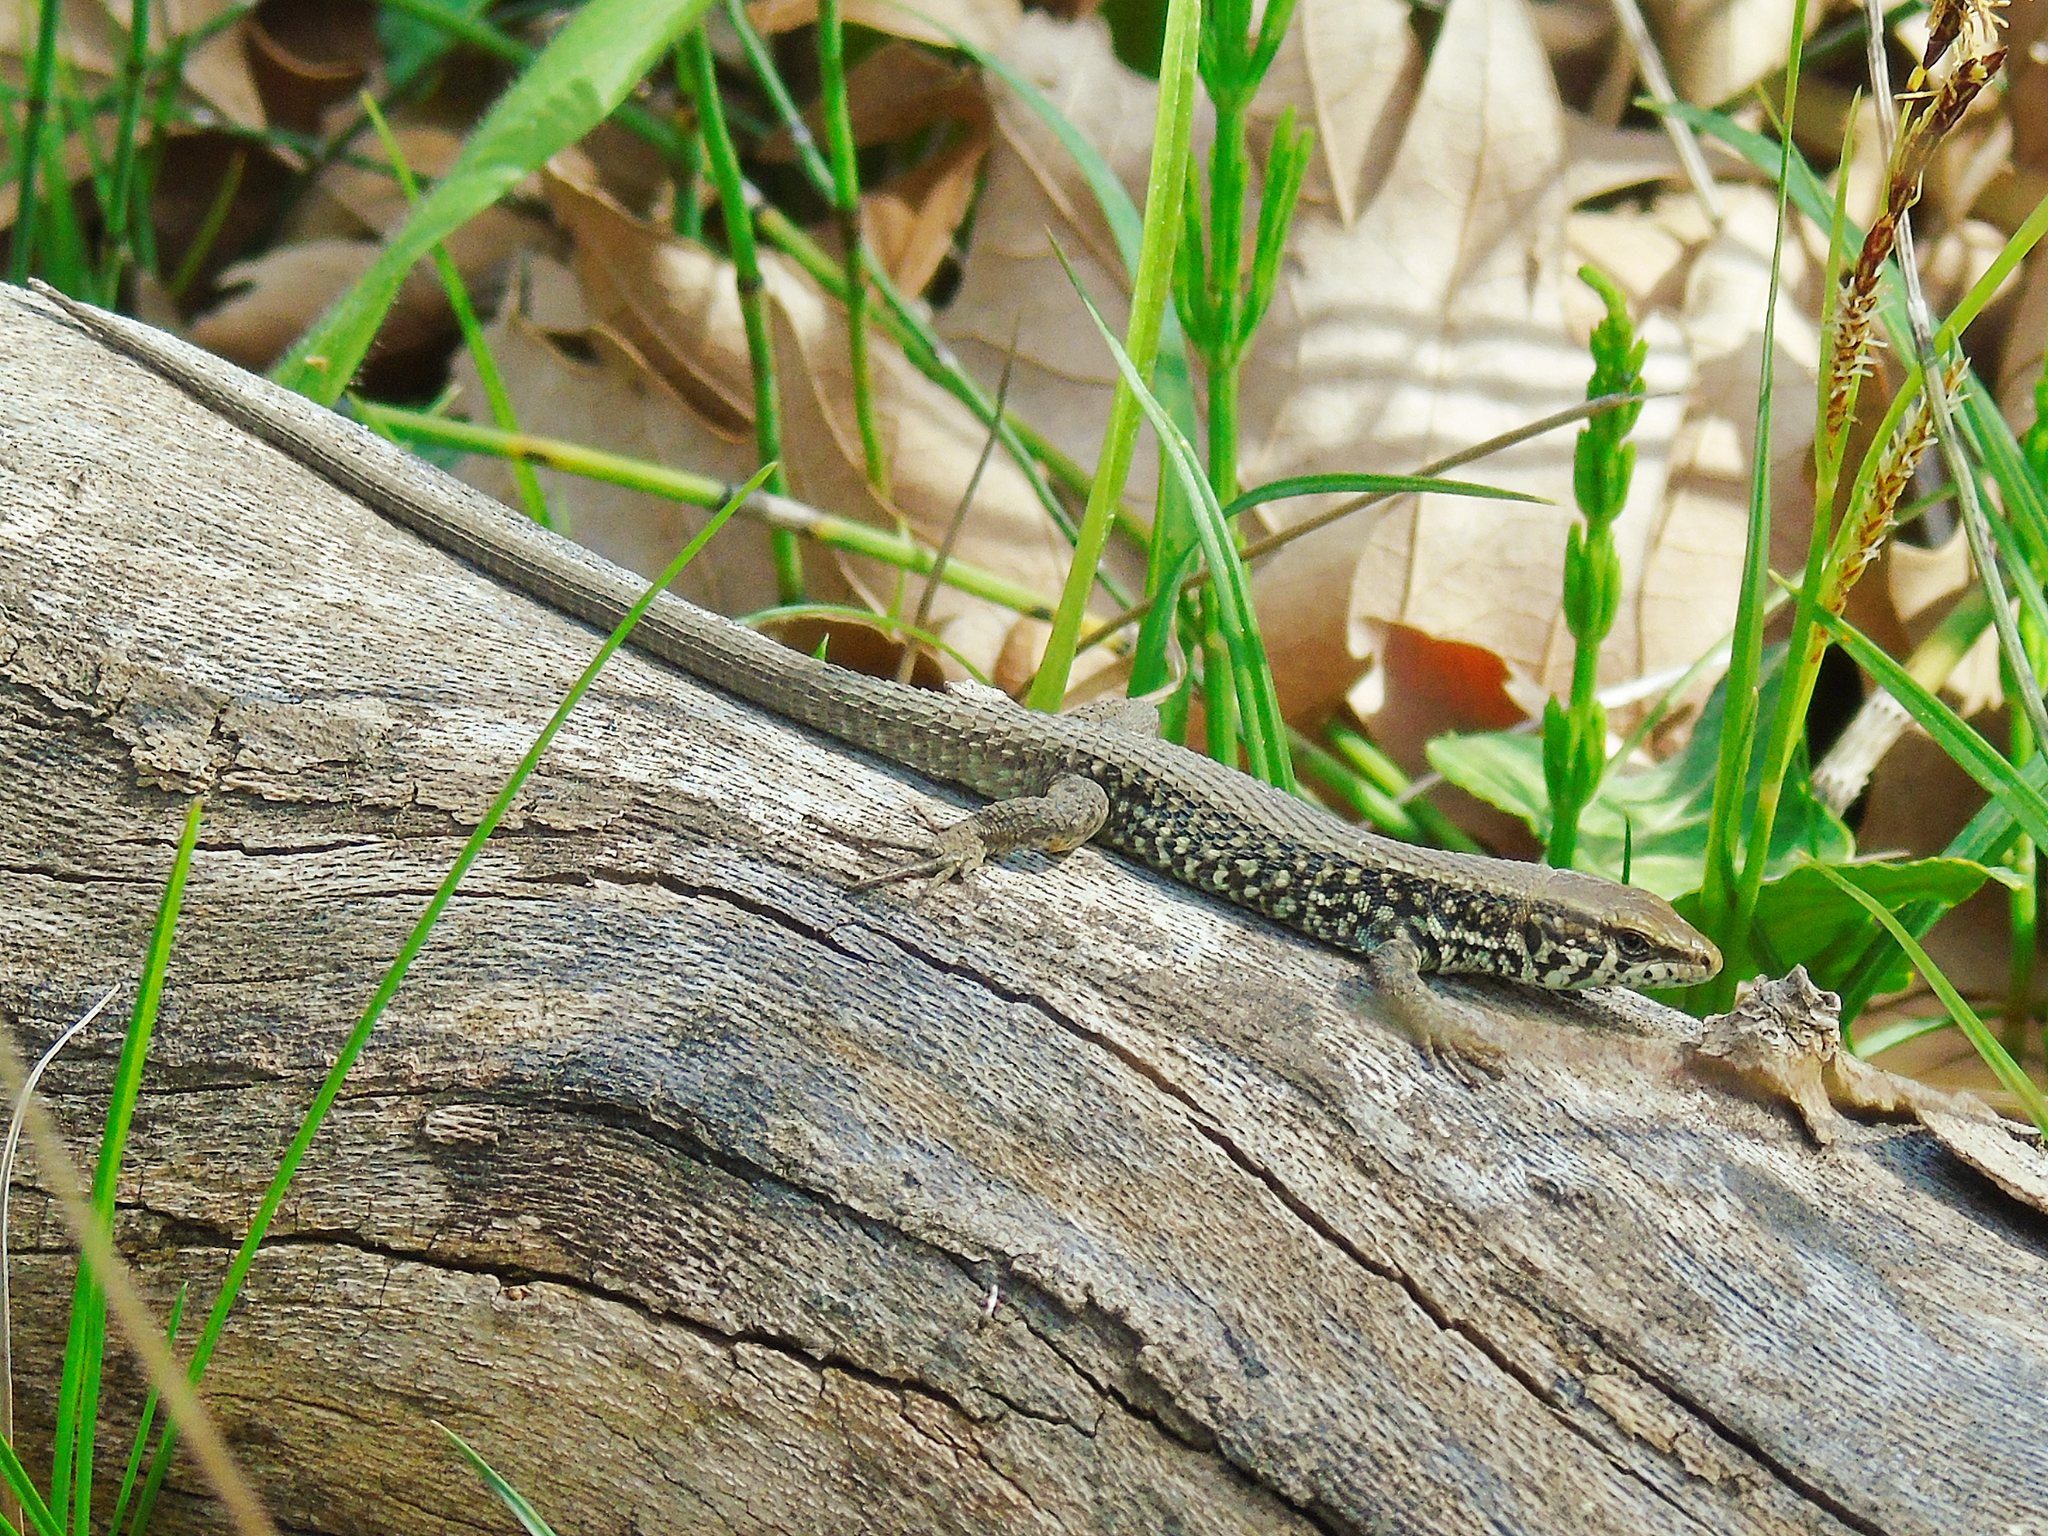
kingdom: Animalia
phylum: Chordata
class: Squamata
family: Lacertidae
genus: Algyroides
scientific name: Algyroides moreoticus
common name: Greek algyroides
